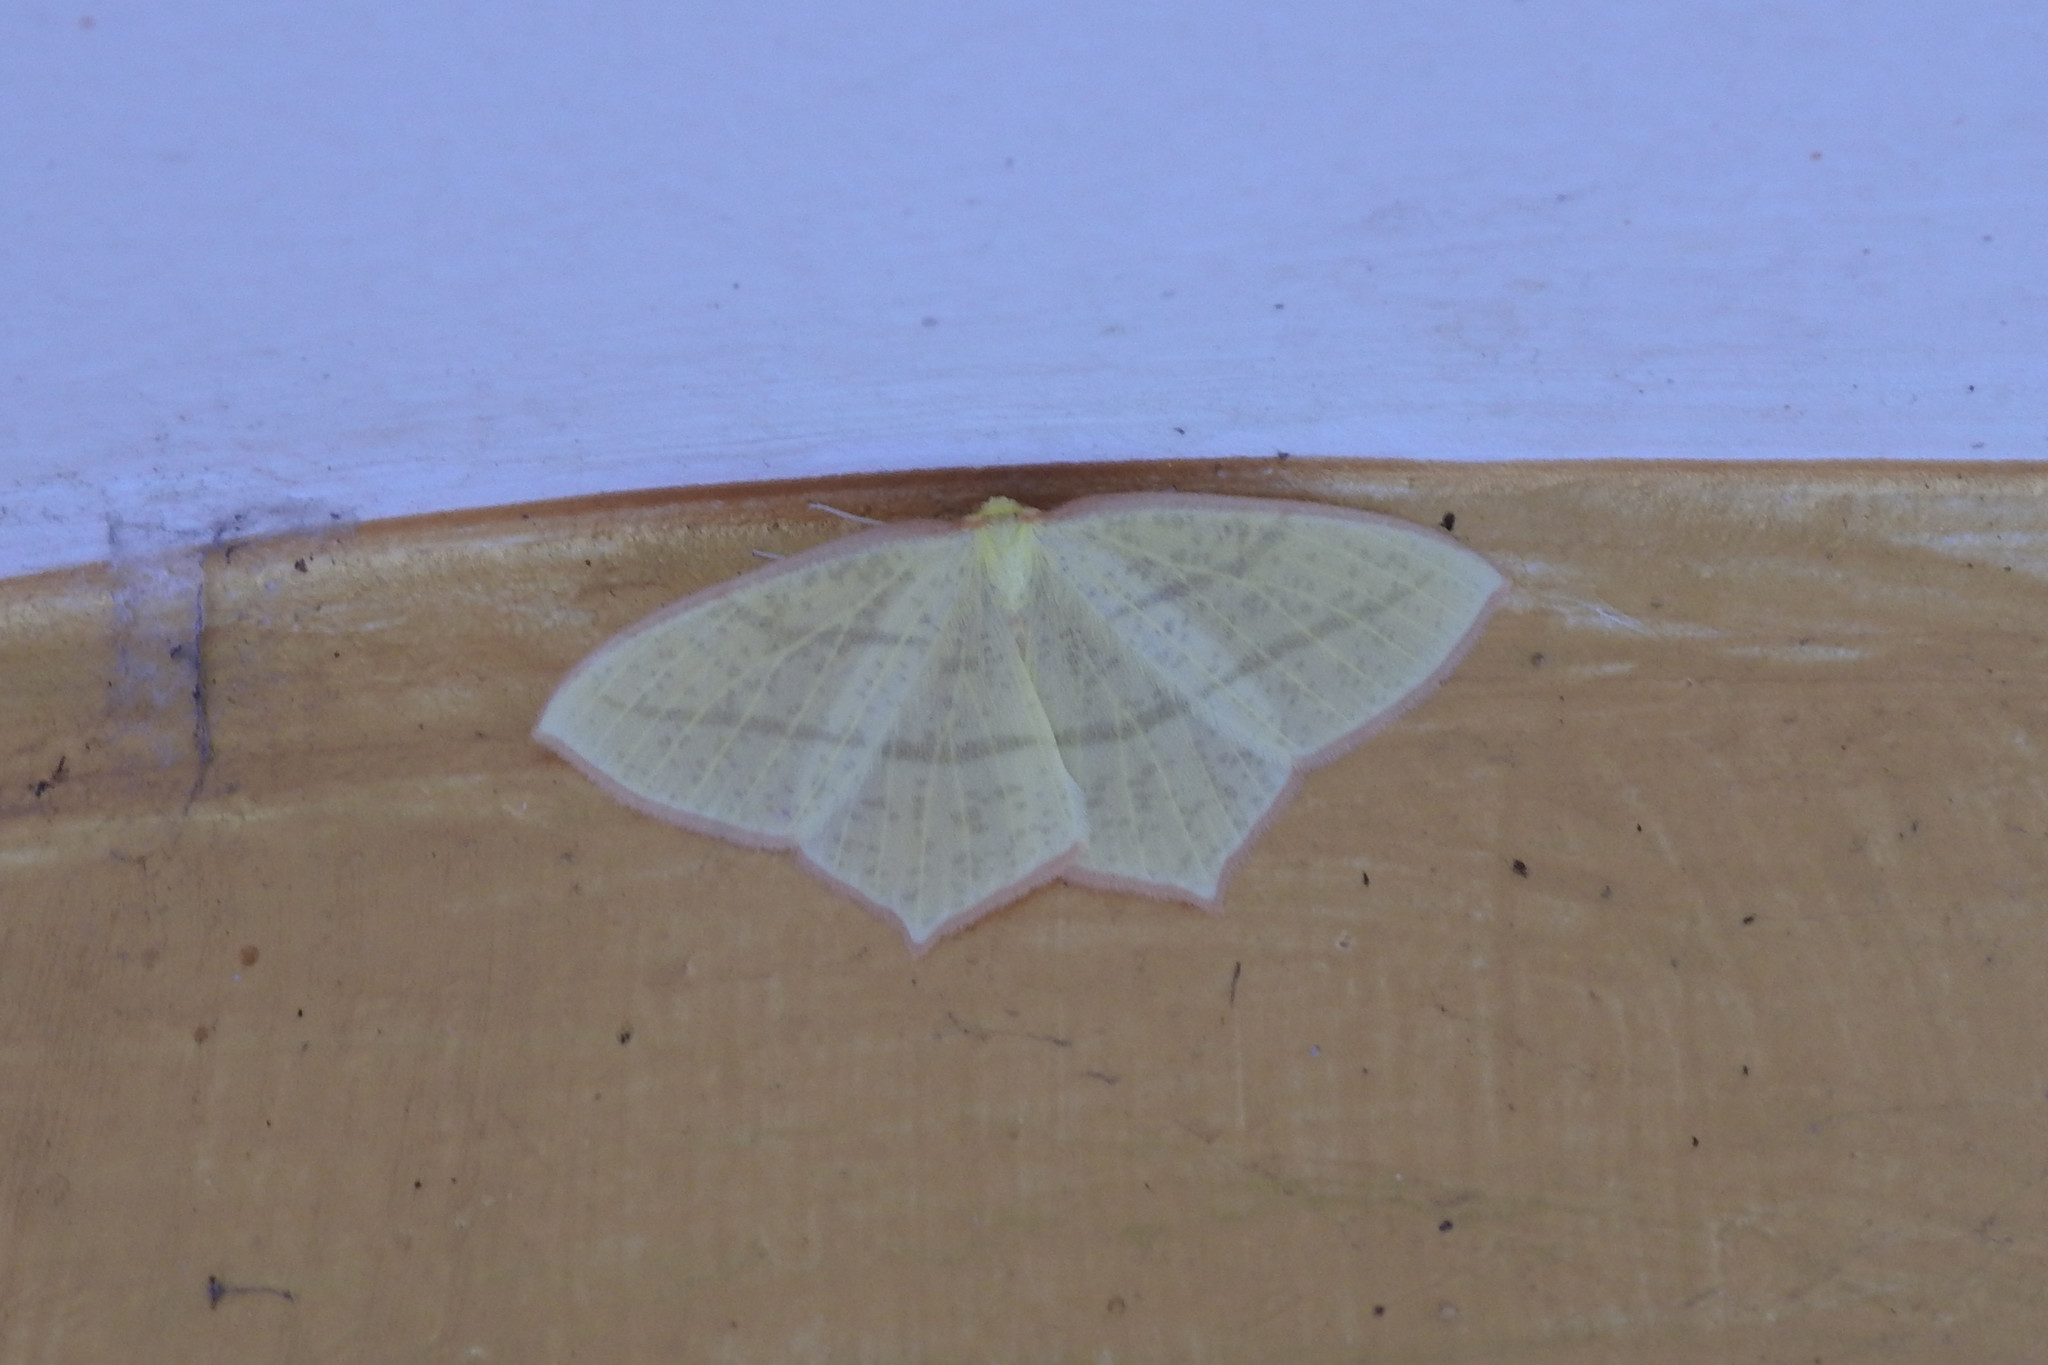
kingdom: Animalia
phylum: Arthropoda
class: Insecta
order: Lepidoptera
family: Geometridae
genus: Sirinopteryx
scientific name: Sirinopteryx rufivinctata
